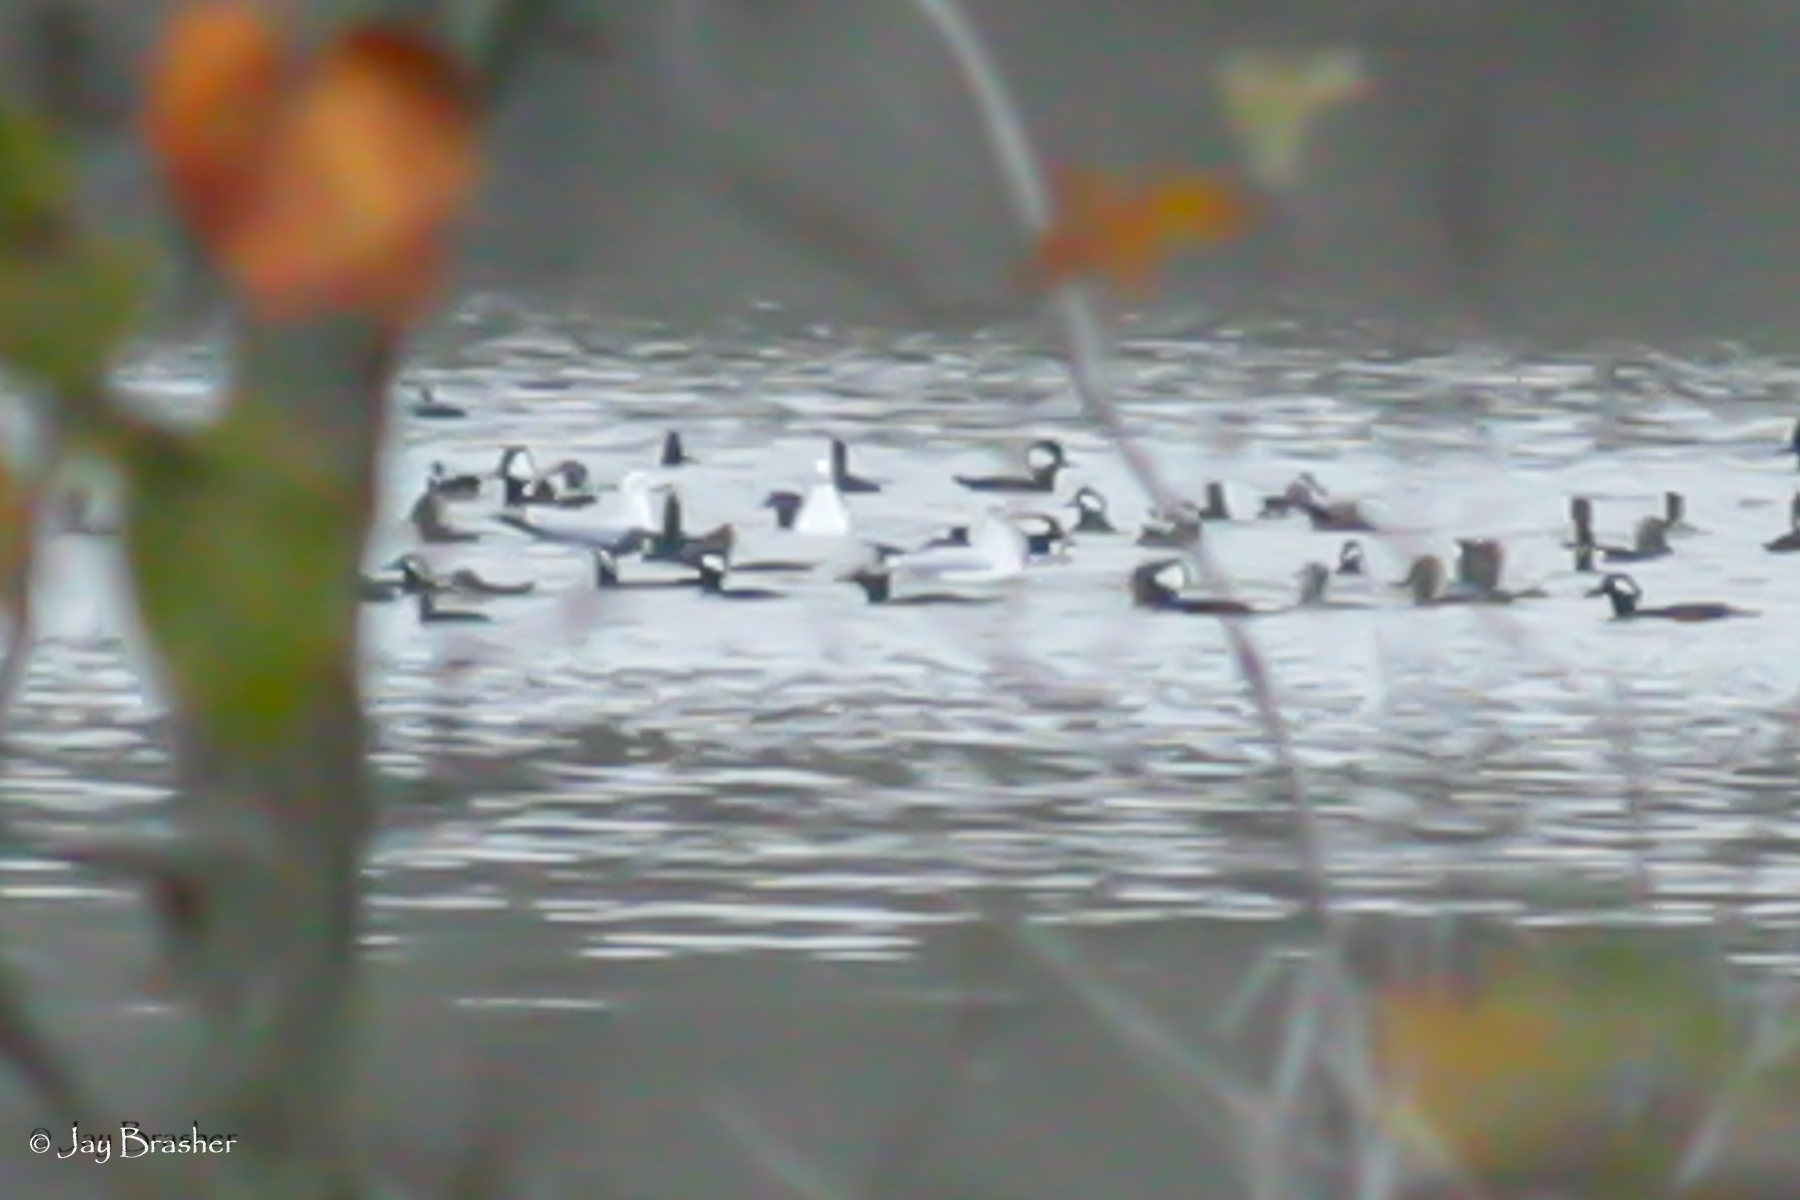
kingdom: Animalia
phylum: Chordata
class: Aves
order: Anseriformes
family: Anatidae
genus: Lophodytes
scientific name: Lophodytes cucullatus
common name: Hooded merganser
